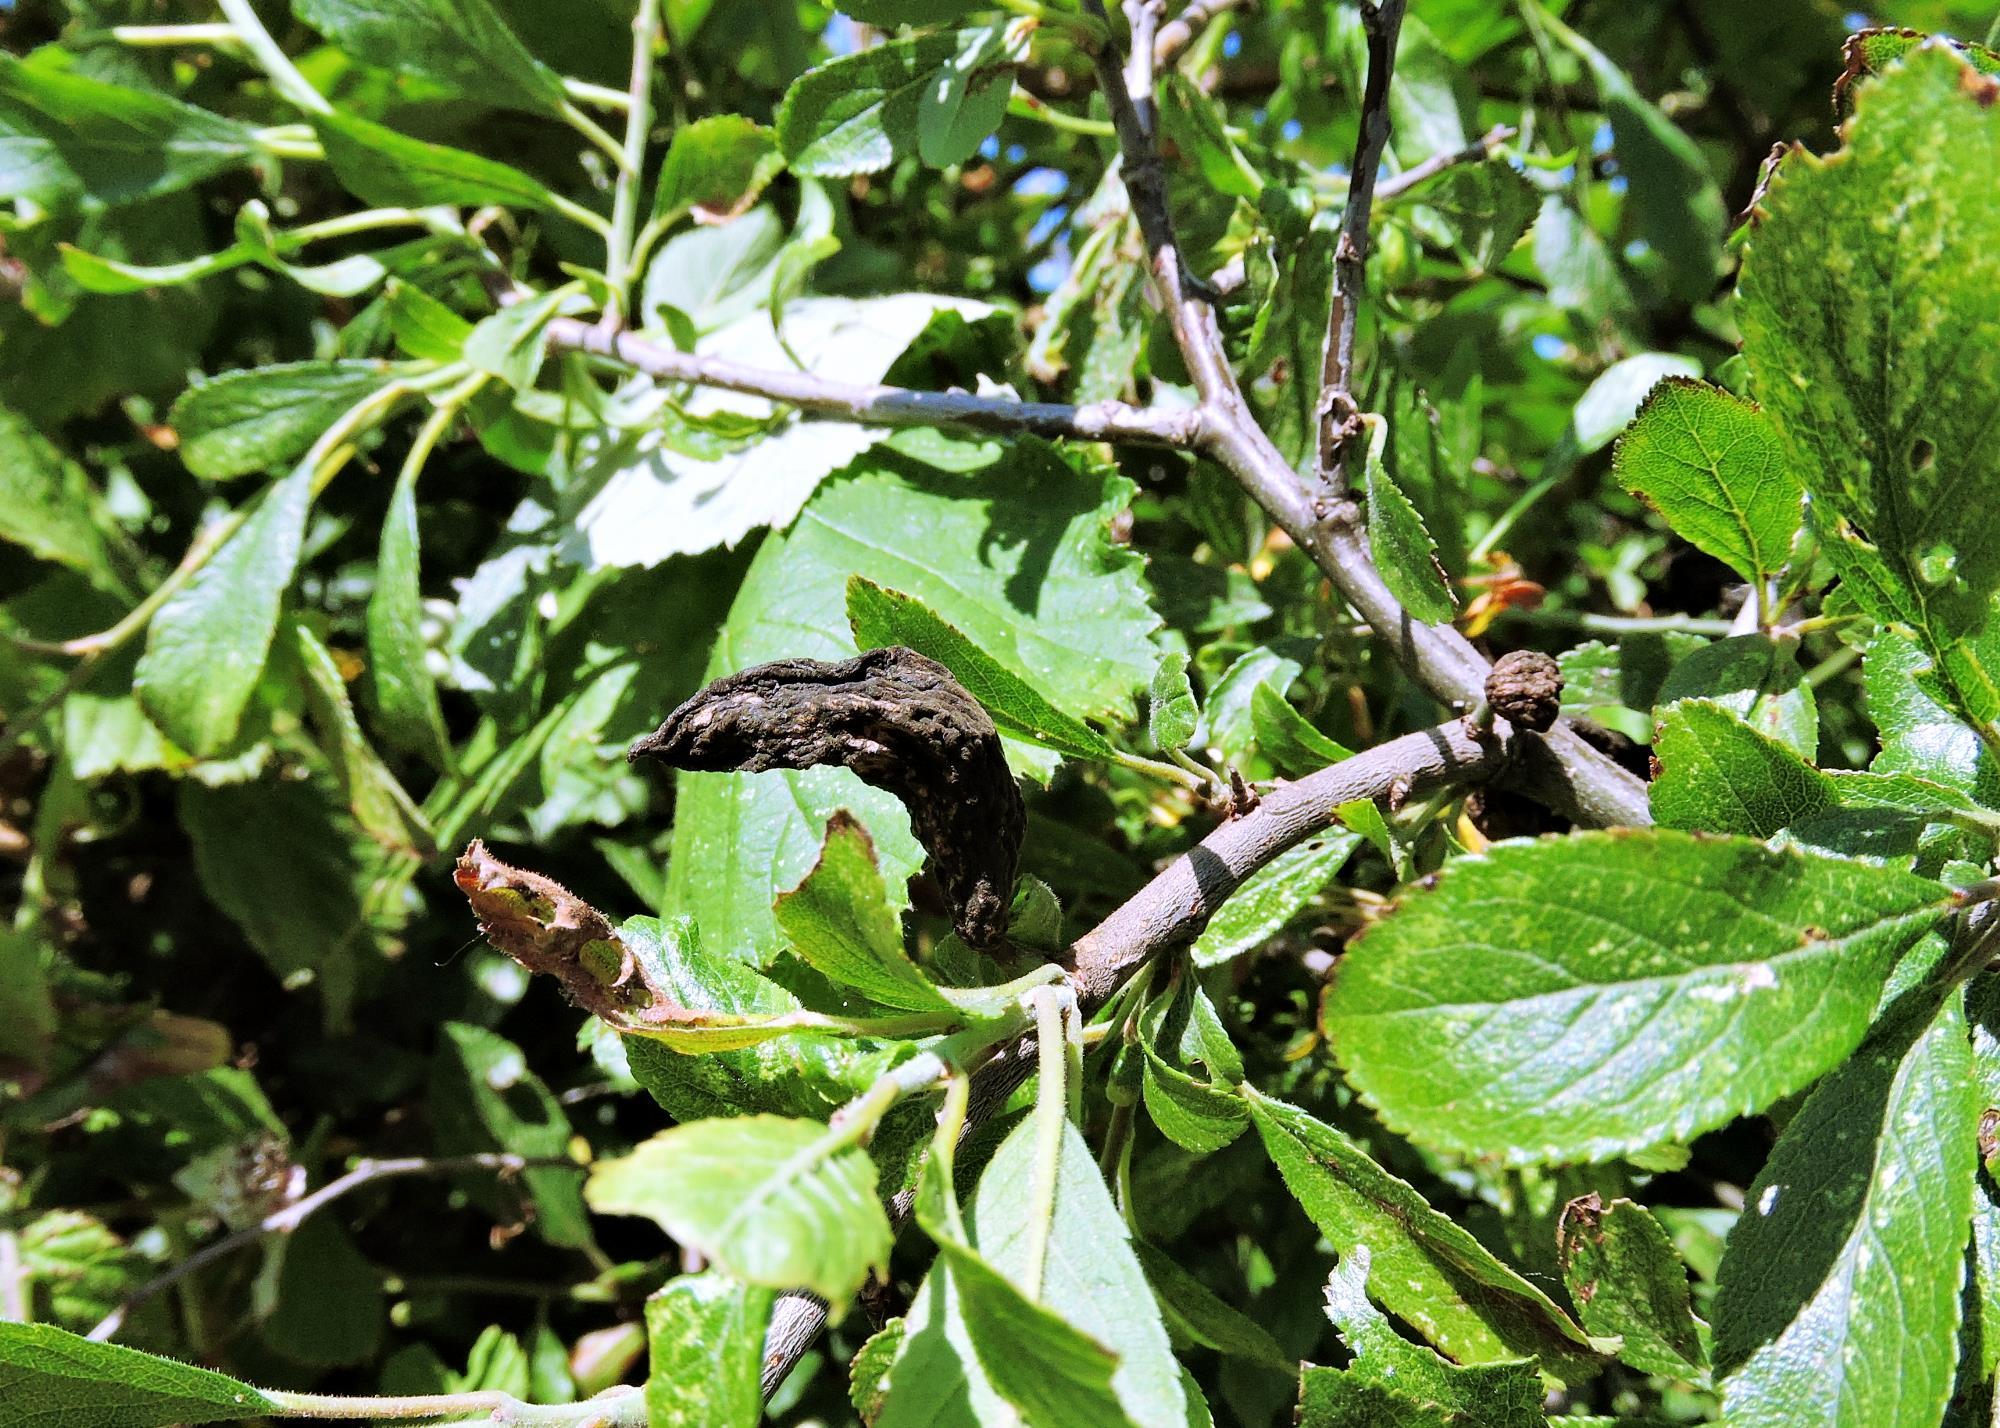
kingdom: Fungi
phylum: Ascomycota
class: Taphrinomycetes
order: Taphrinales
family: Taphrinaceae
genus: Taphrina
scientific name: Taphrina pruni
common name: Pocket plum
